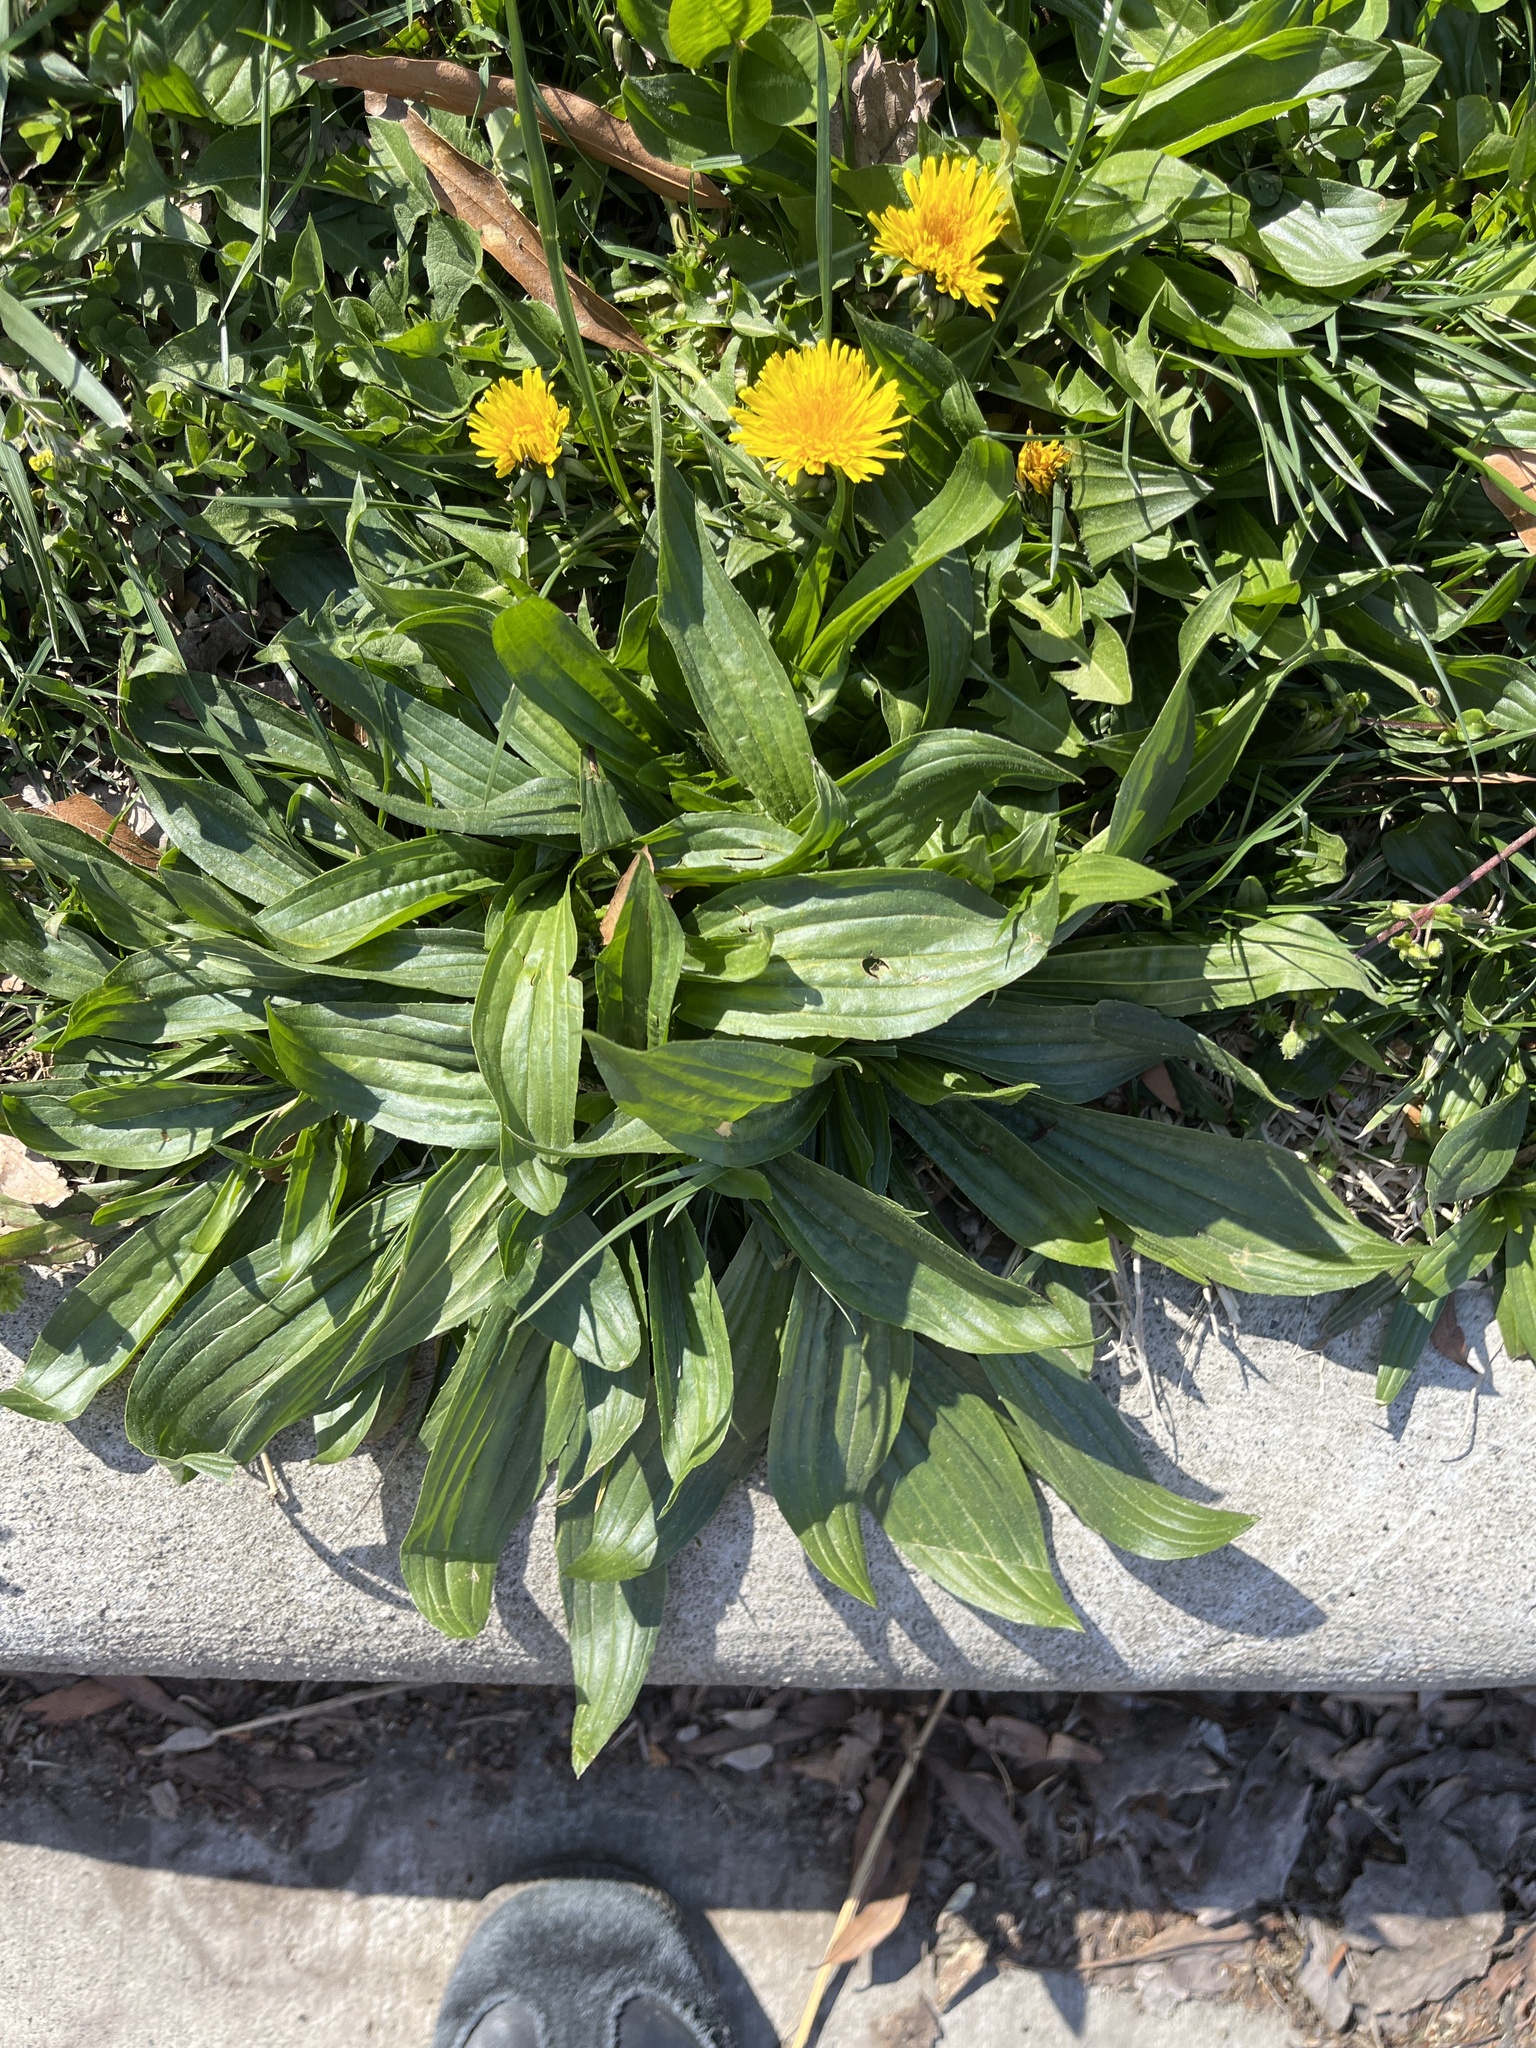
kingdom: Plantae
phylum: Tracheophyta
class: Magnoliopsida
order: Lamiales
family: Plantaginaceae
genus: Plantago
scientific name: Plantago lanceolata
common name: Ribwort plantain
